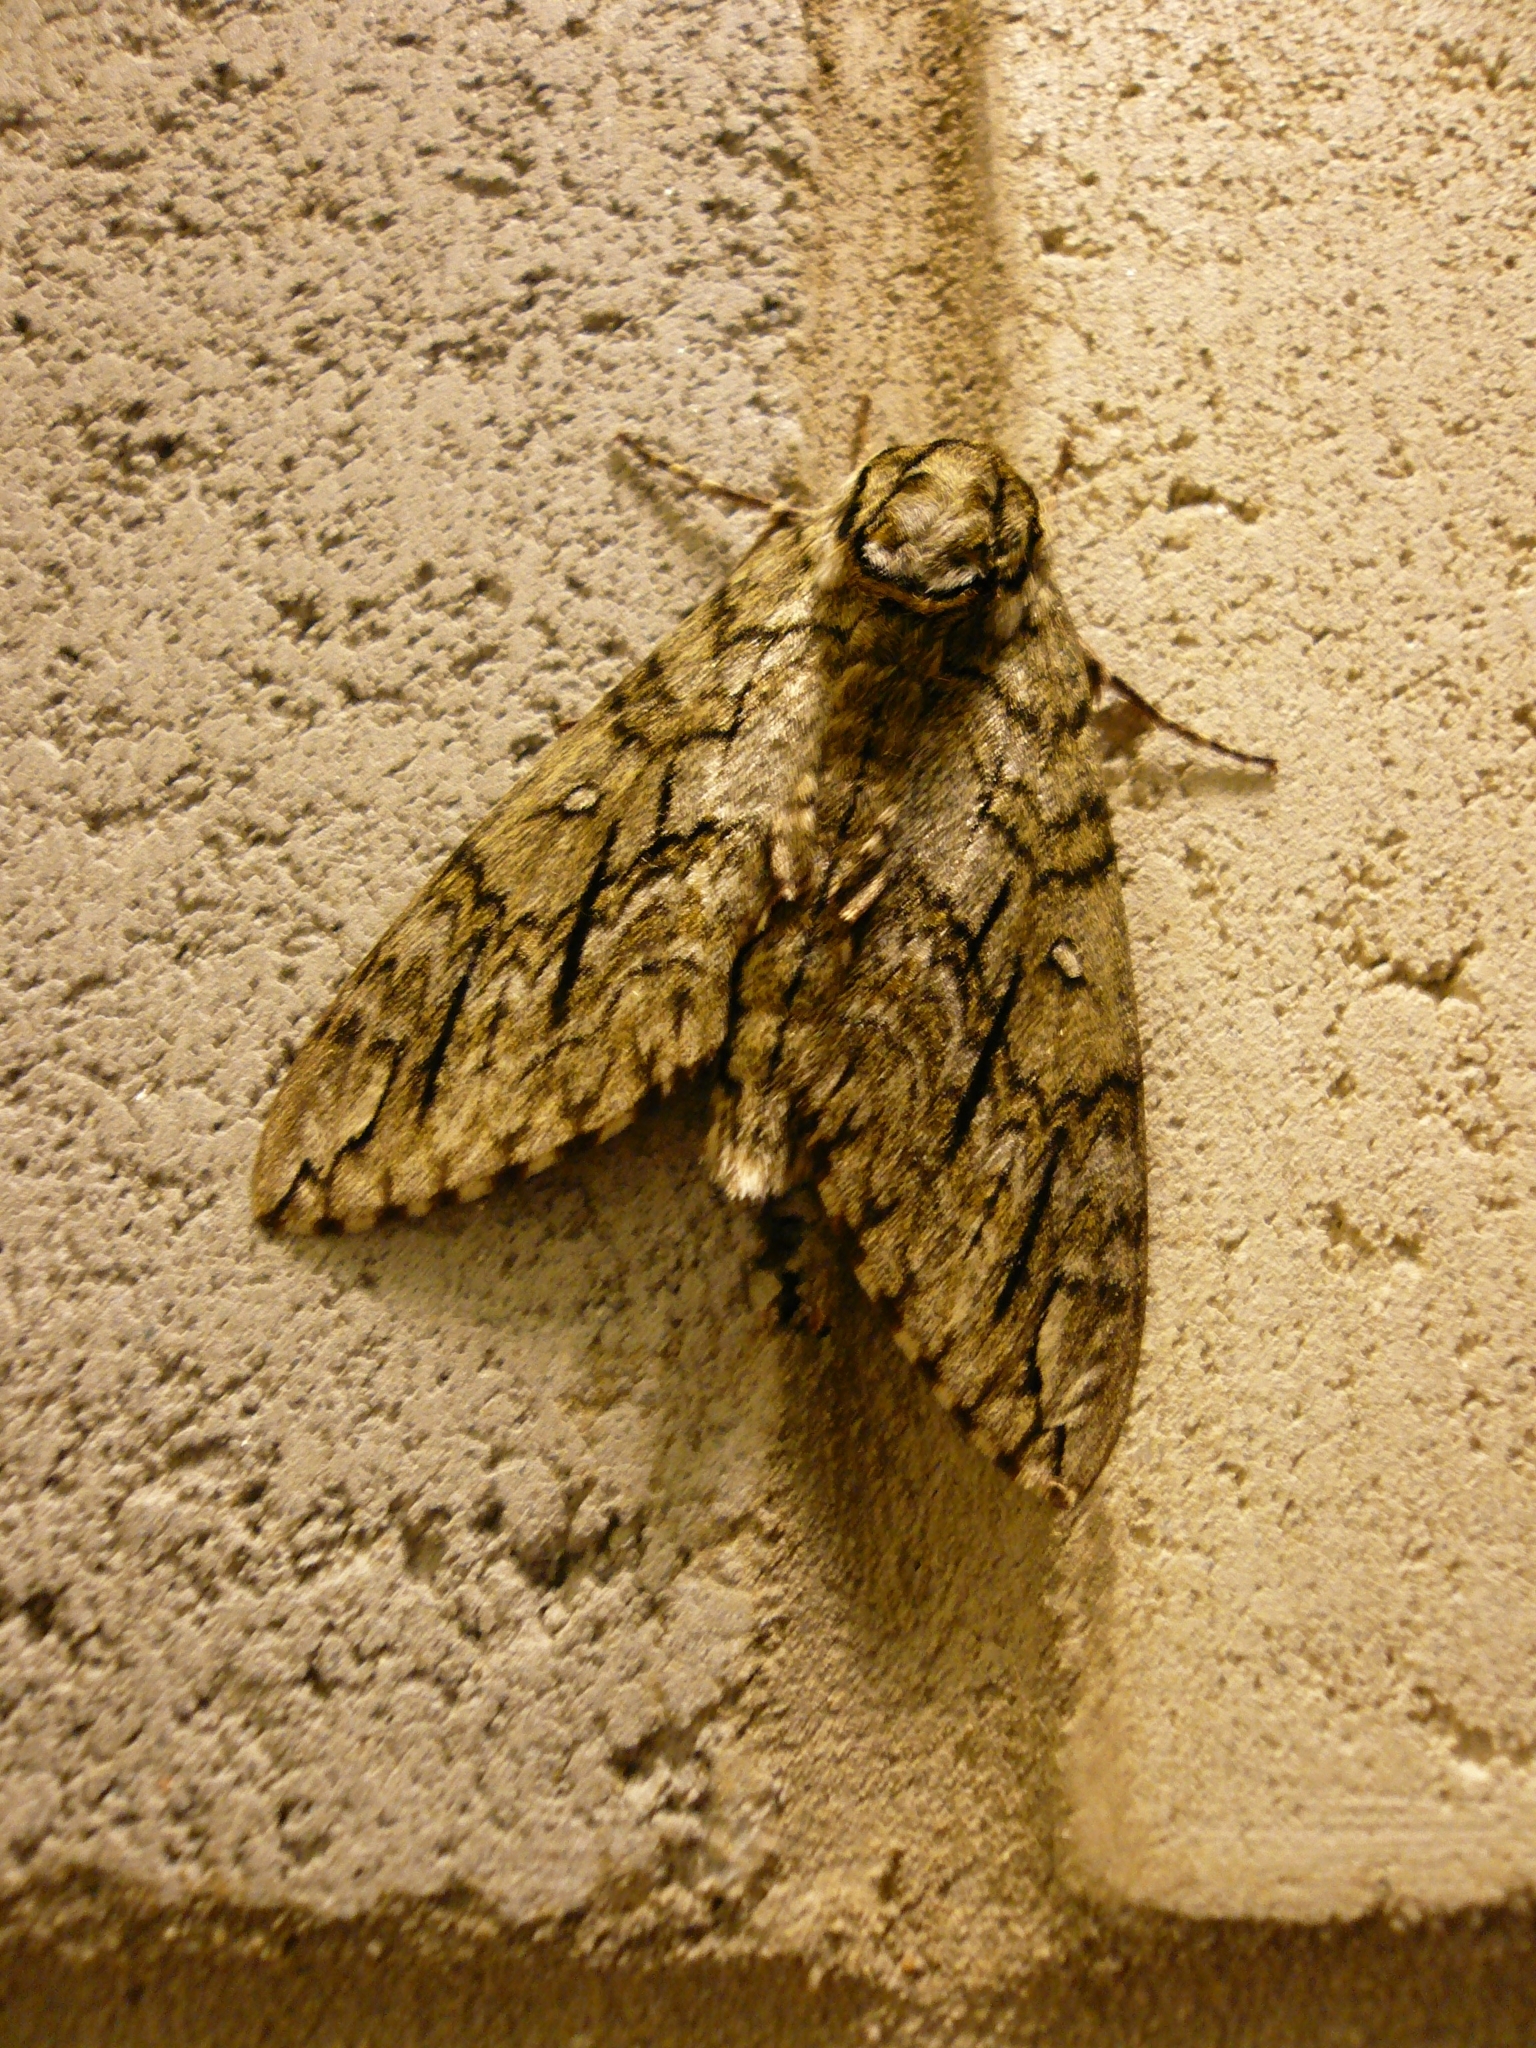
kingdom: Animalia
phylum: Arthropoda
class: Insecta
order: Lepidoptera
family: Sphingidae
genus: Ceratomia
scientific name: Ceratomia undulosa
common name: Waved sphinx
